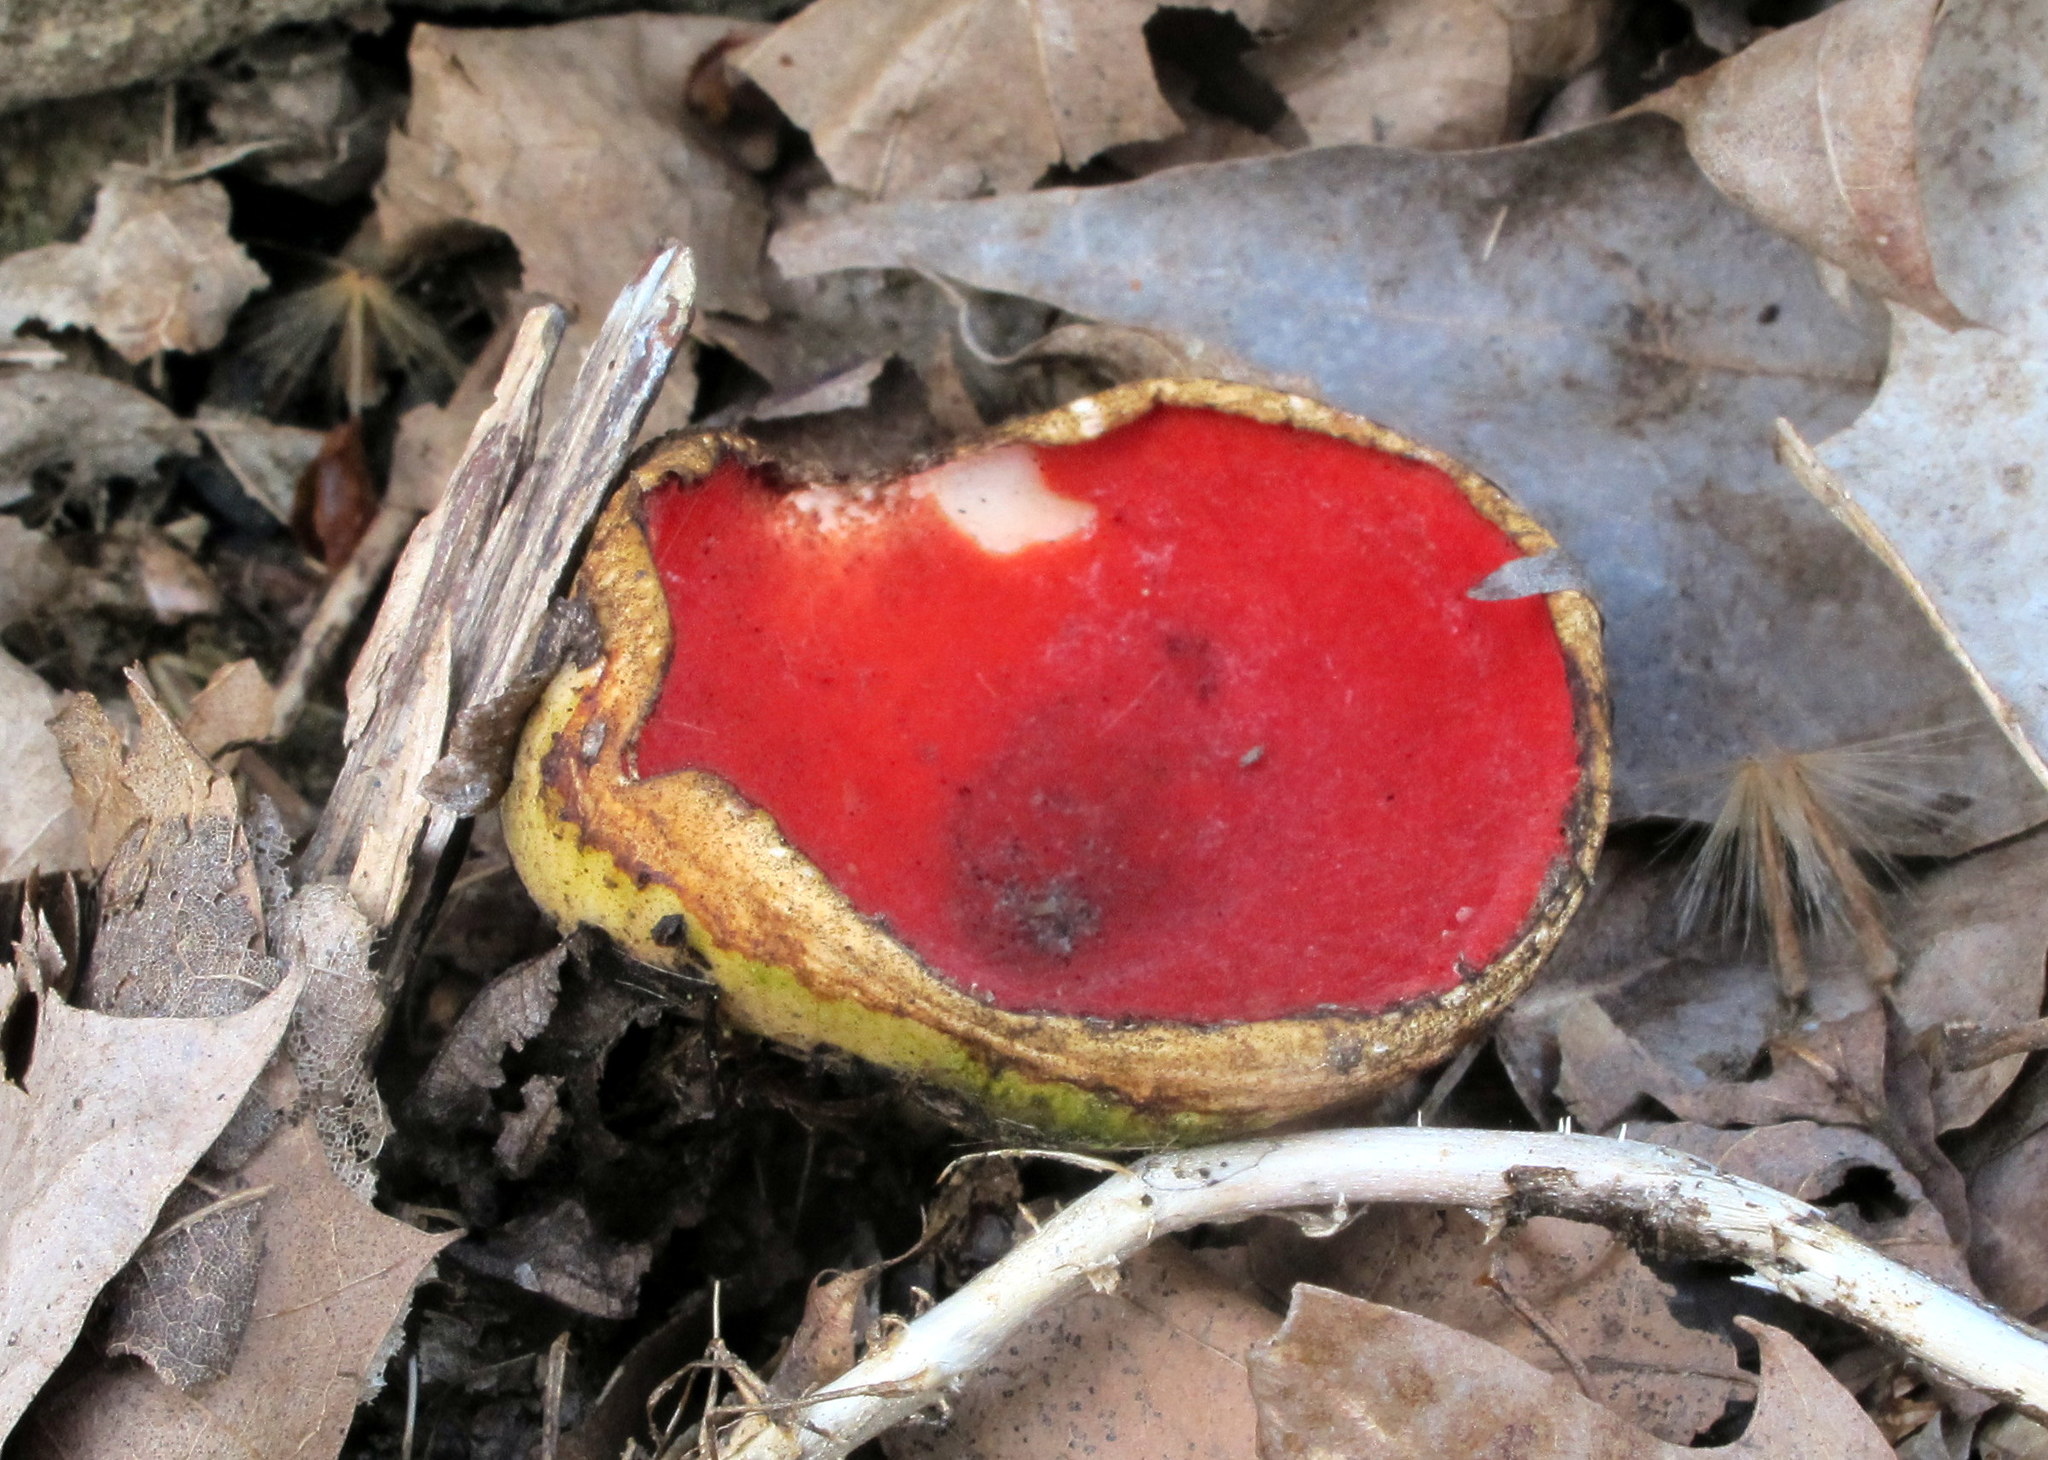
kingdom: Fungi
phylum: Ascomycota
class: Pezizomycetes
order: Pezizales
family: Sarcoscyphaceae
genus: Sarcoscypha
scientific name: Sarcoscypha austriaca
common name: Scarlet elfcup
